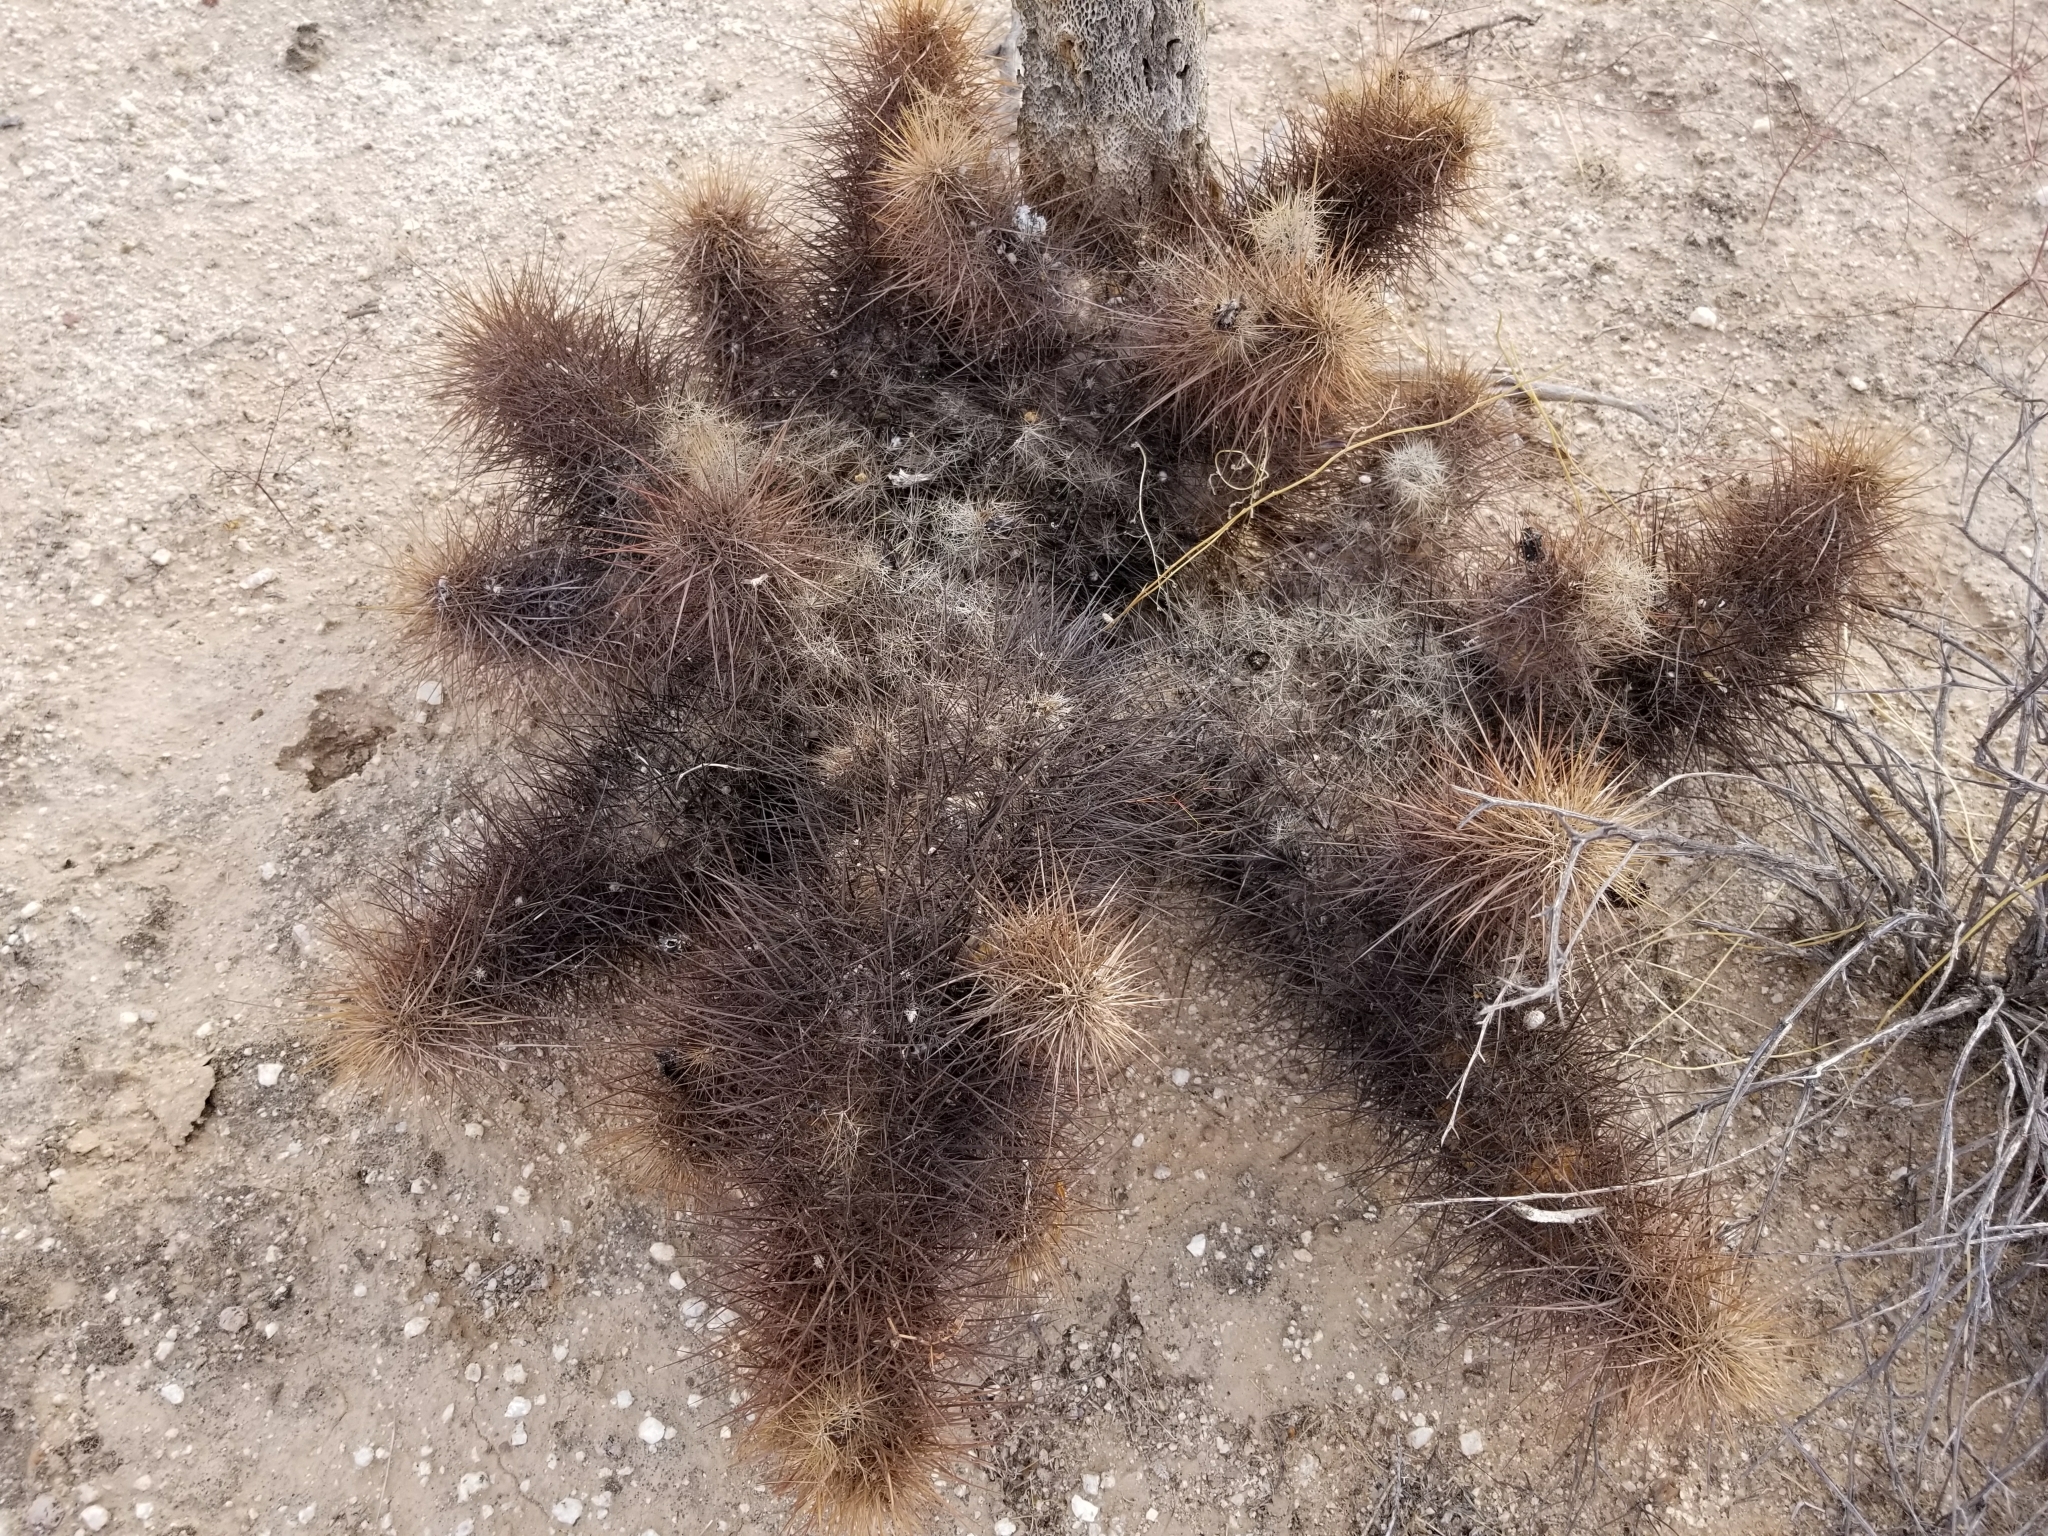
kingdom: Plantae
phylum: Tracheophyta
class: Magnoliopsida
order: Caryophyllales
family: Cactaceae
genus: Grusonia
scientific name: Grusonia kunzei
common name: Wright's club cholla
